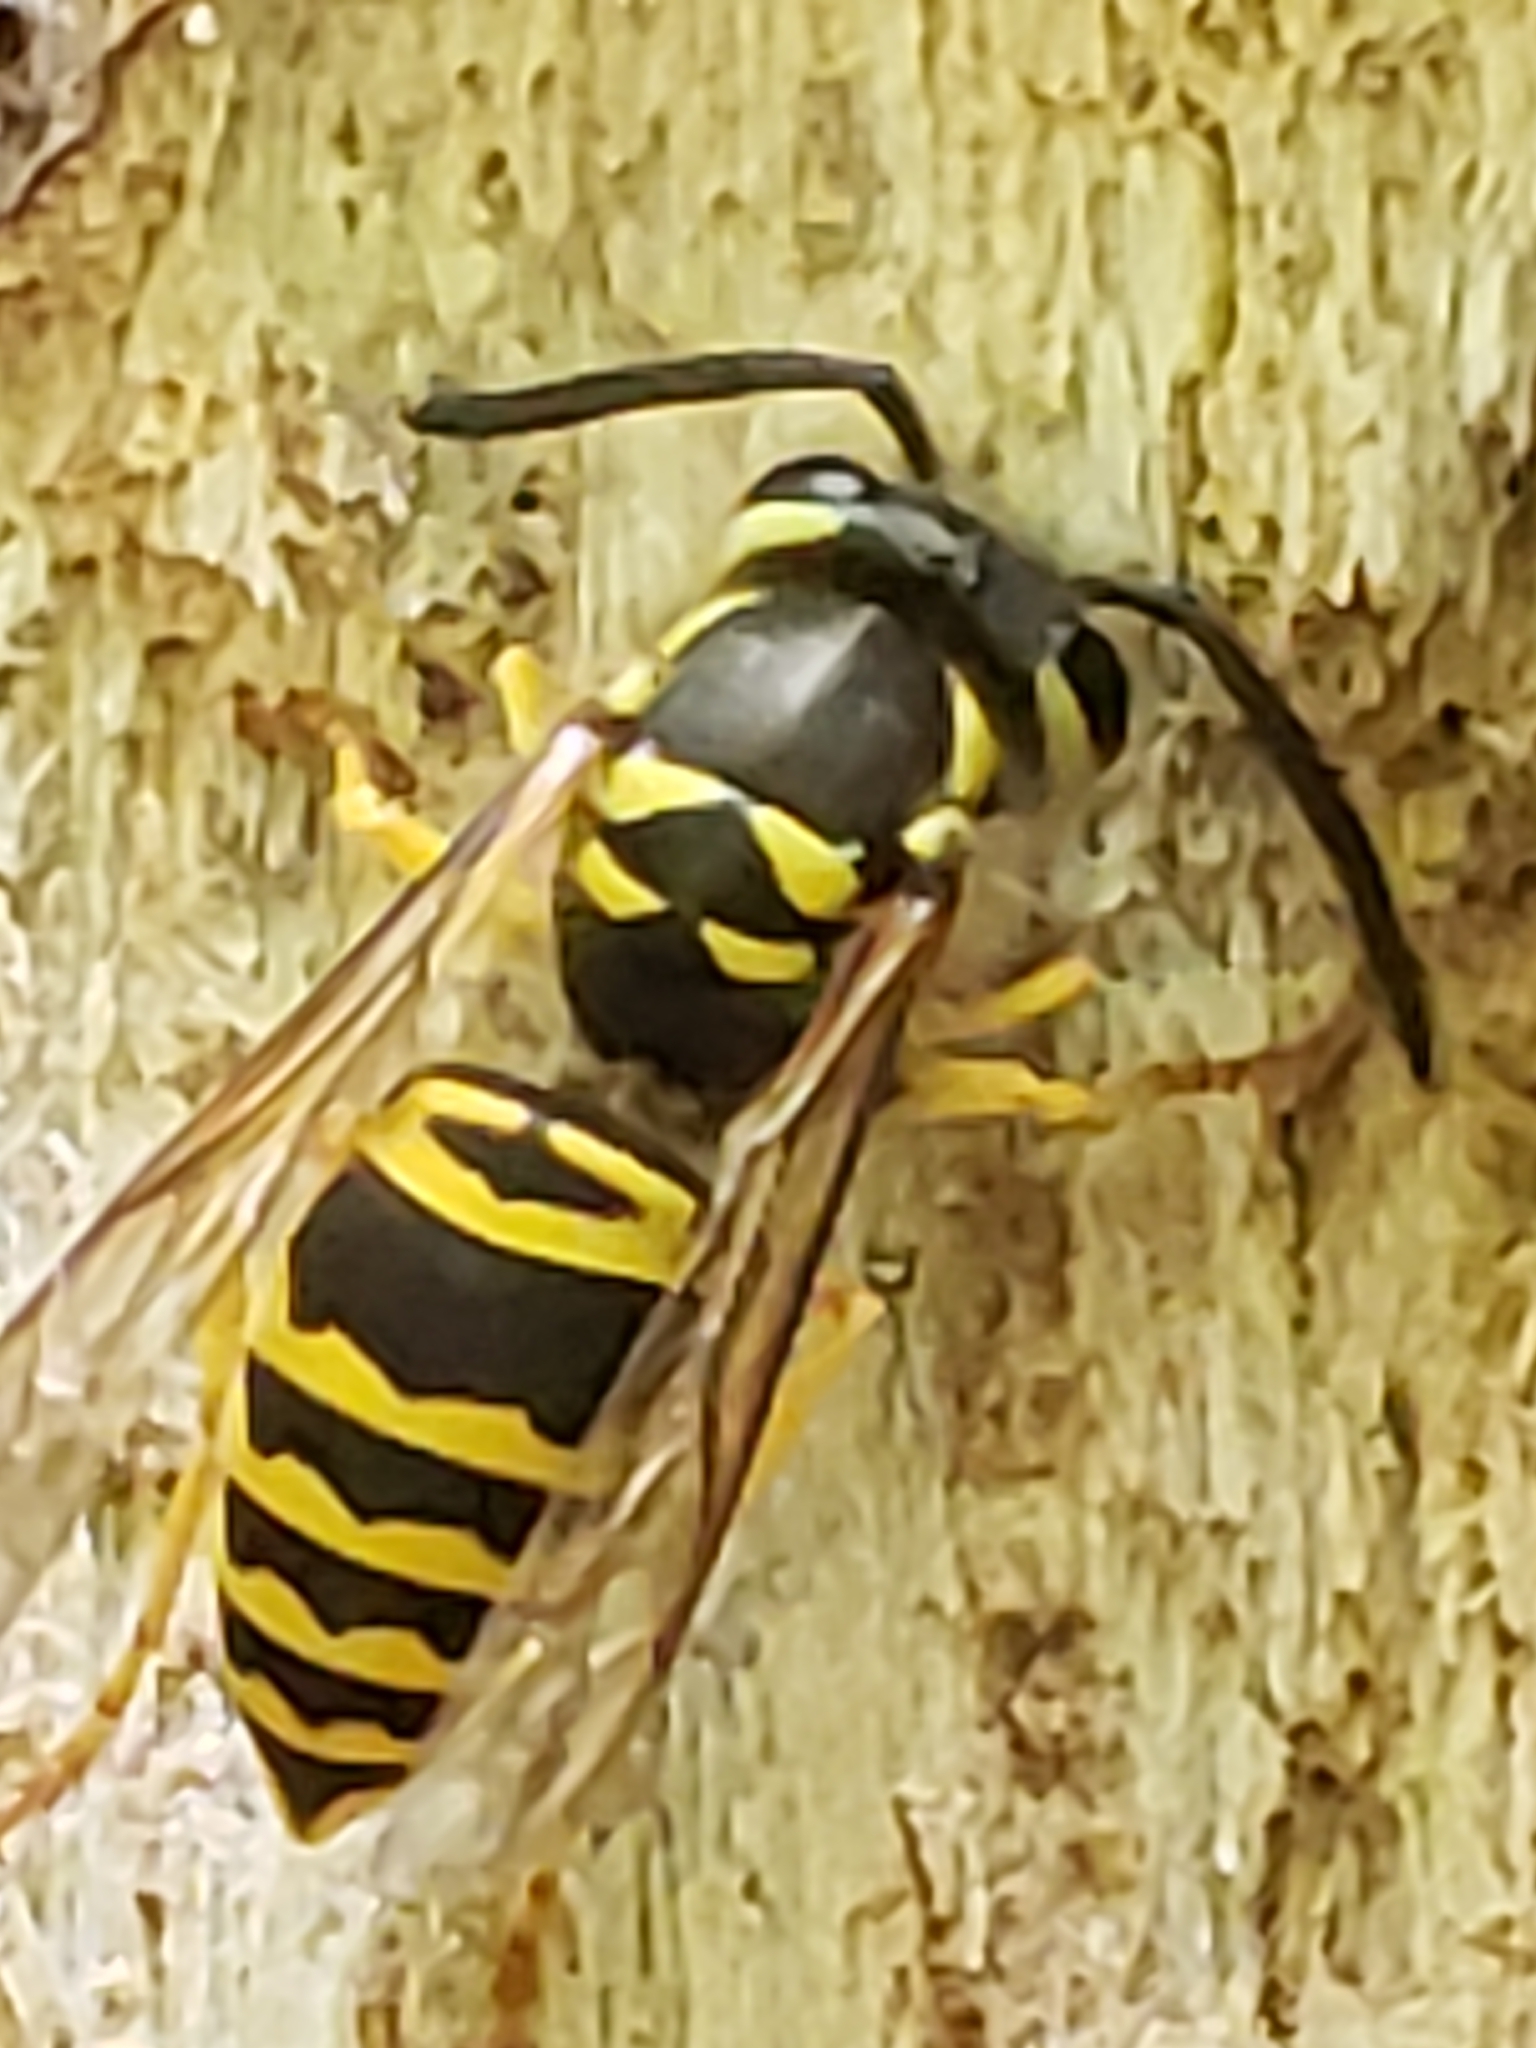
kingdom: Animalia
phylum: Arthropoda
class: Insecta
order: Hymenoptera
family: Vespidae
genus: Vespula
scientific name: Vespula maculifrons
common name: Eastern yellowjacket
